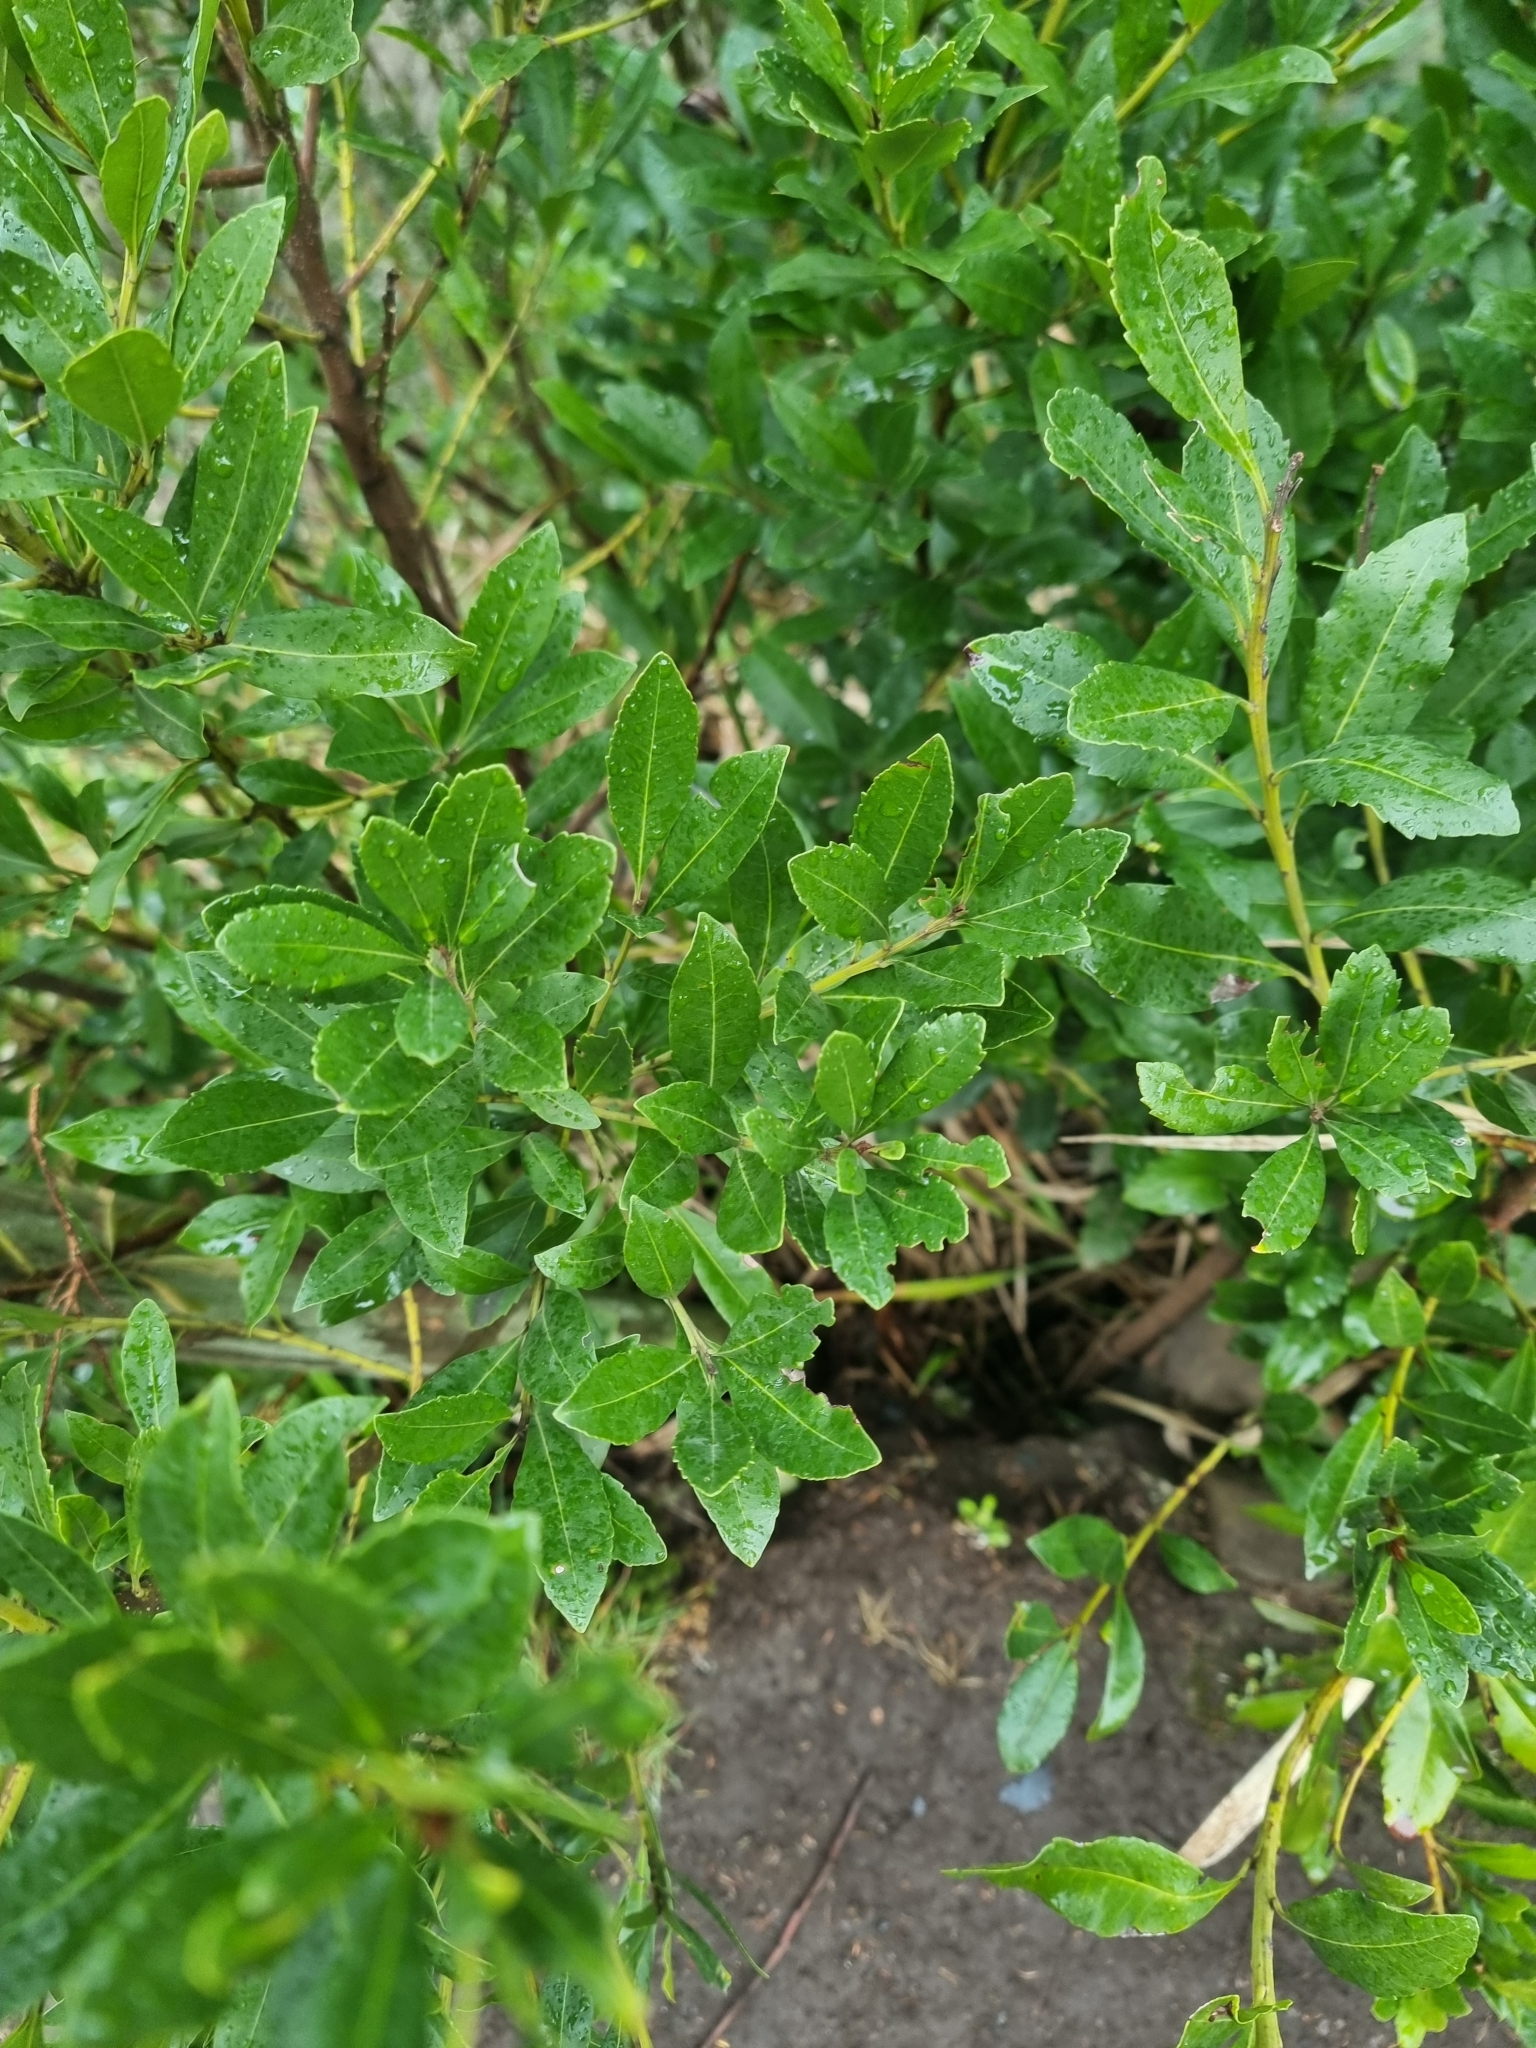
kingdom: Plantae
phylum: Tracheophyta
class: Magnoliopsida
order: Fagales
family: Myricaceae
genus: Morella
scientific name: Morella faya
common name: Firetree
